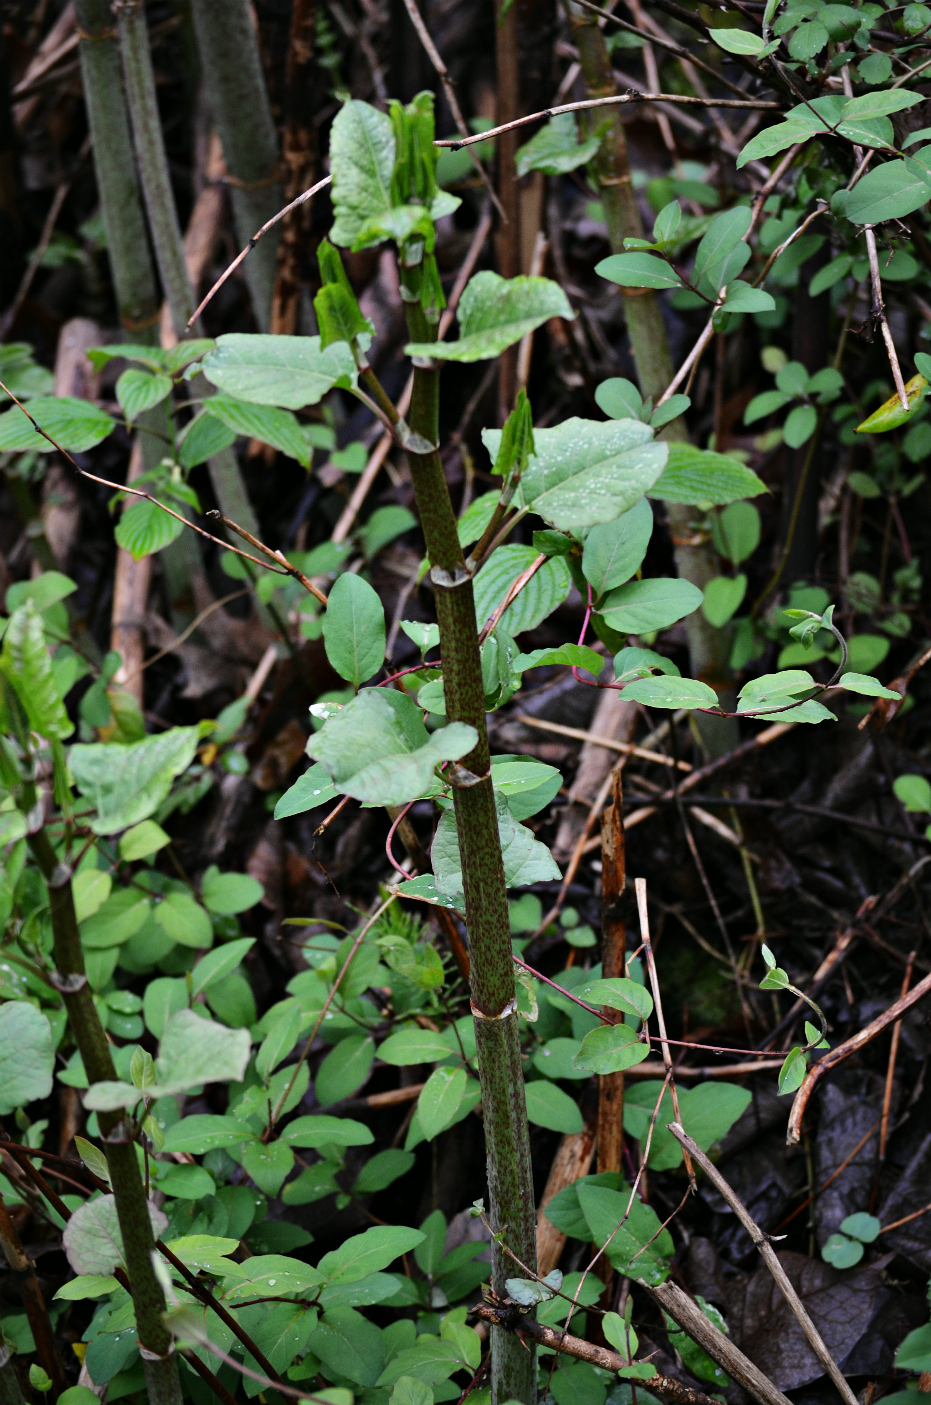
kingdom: Plantae
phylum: Tracheophyta
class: Magnoliopsida
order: Caryophyllales
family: Polygonaceae
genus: Reynoutria
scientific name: Reynoutria japonica
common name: Japanese knotweed
